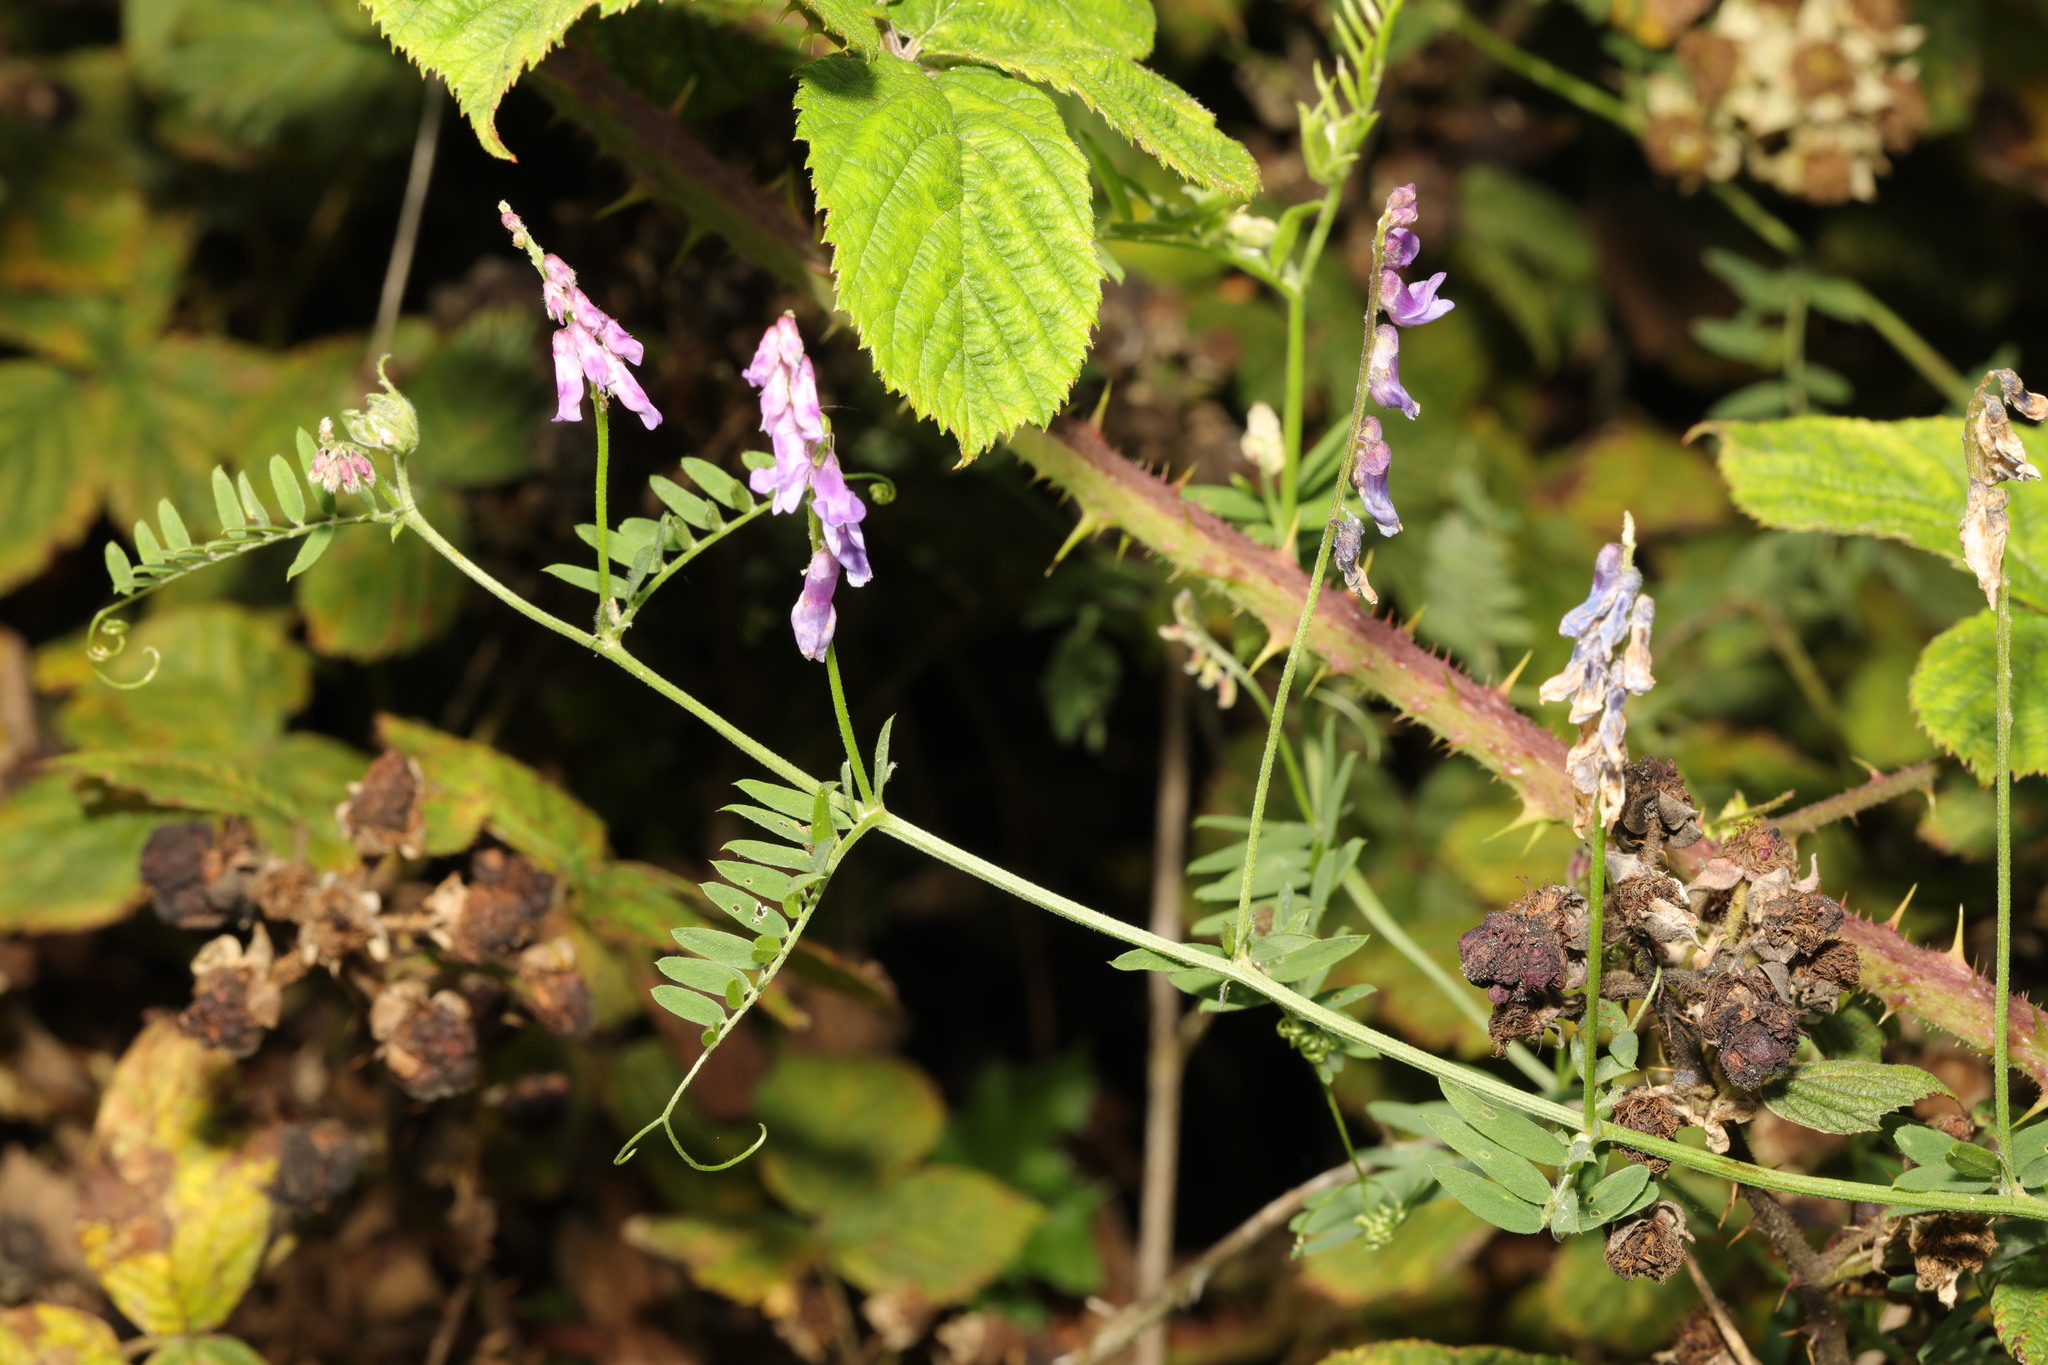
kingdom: Plantae
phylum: Tracheophyta
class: Magnoliopsida
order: Fabales
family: Fabaceae
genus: Vicia
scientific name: Vicia cracca
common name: Bird vetch
